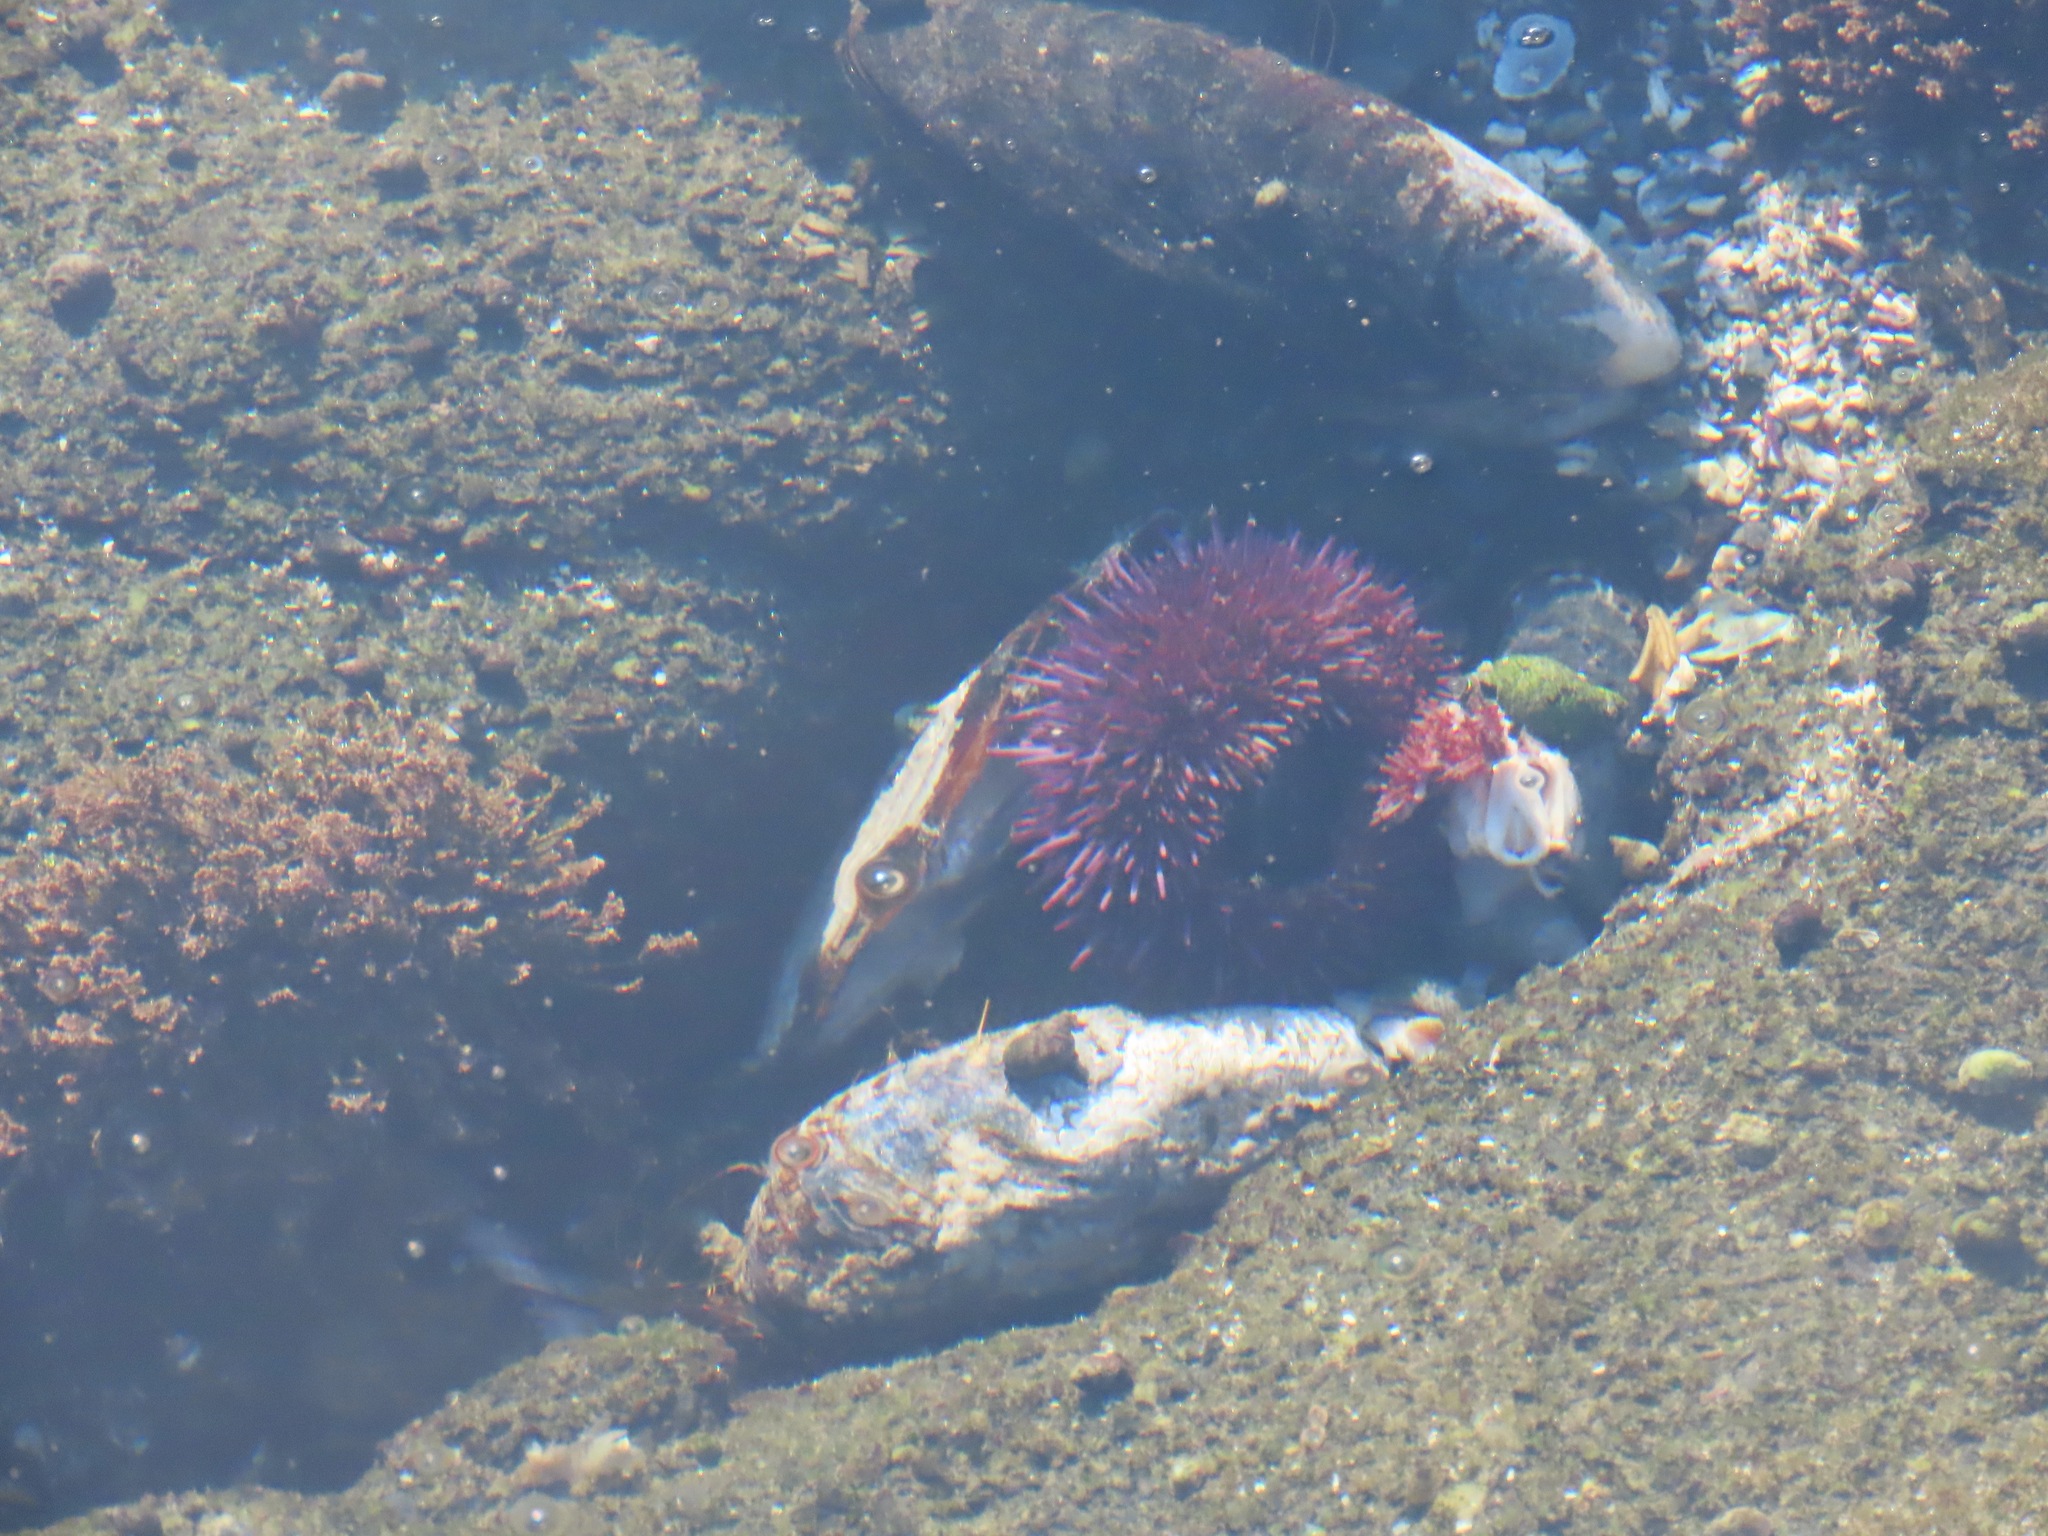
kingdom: Animalia
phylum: Echinodermata
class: Echinoidea
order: Camarodonta
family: Strongylocentrotidae
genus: Strongylocentrotus
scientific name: Strongylocentrotus purpuratus
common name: Purple sea urchin
